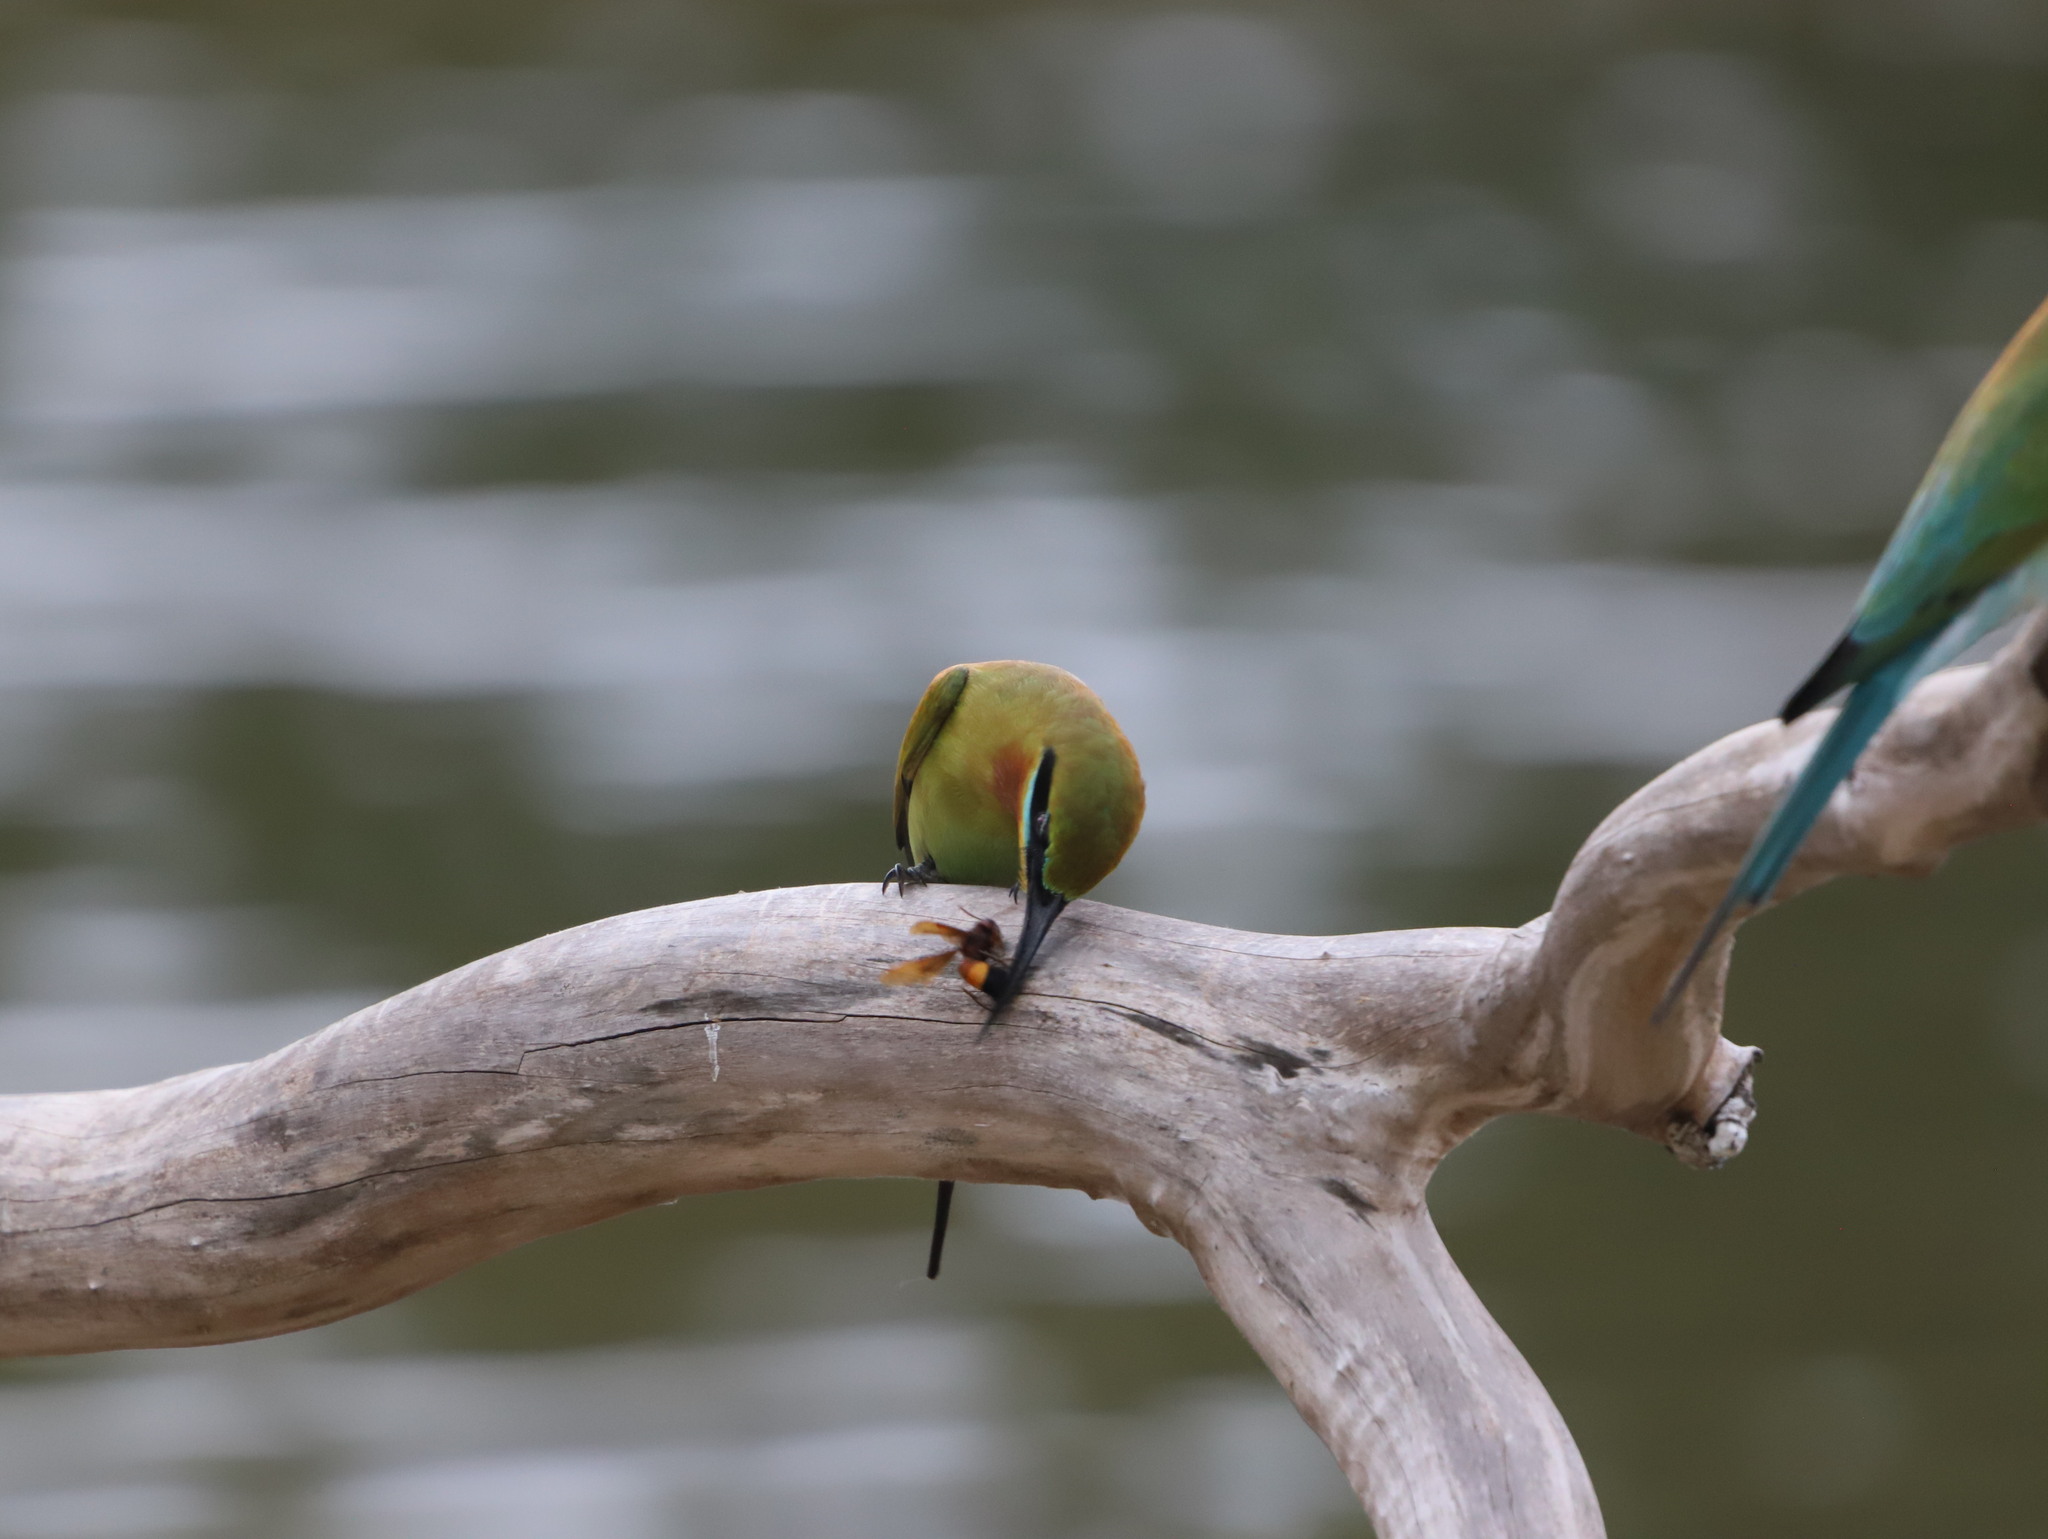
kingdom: Animalia
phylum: Arthropoda
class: Insecta
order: Hymenoptera
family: Vespidae
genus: Vespa
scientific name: Vespa affinis
